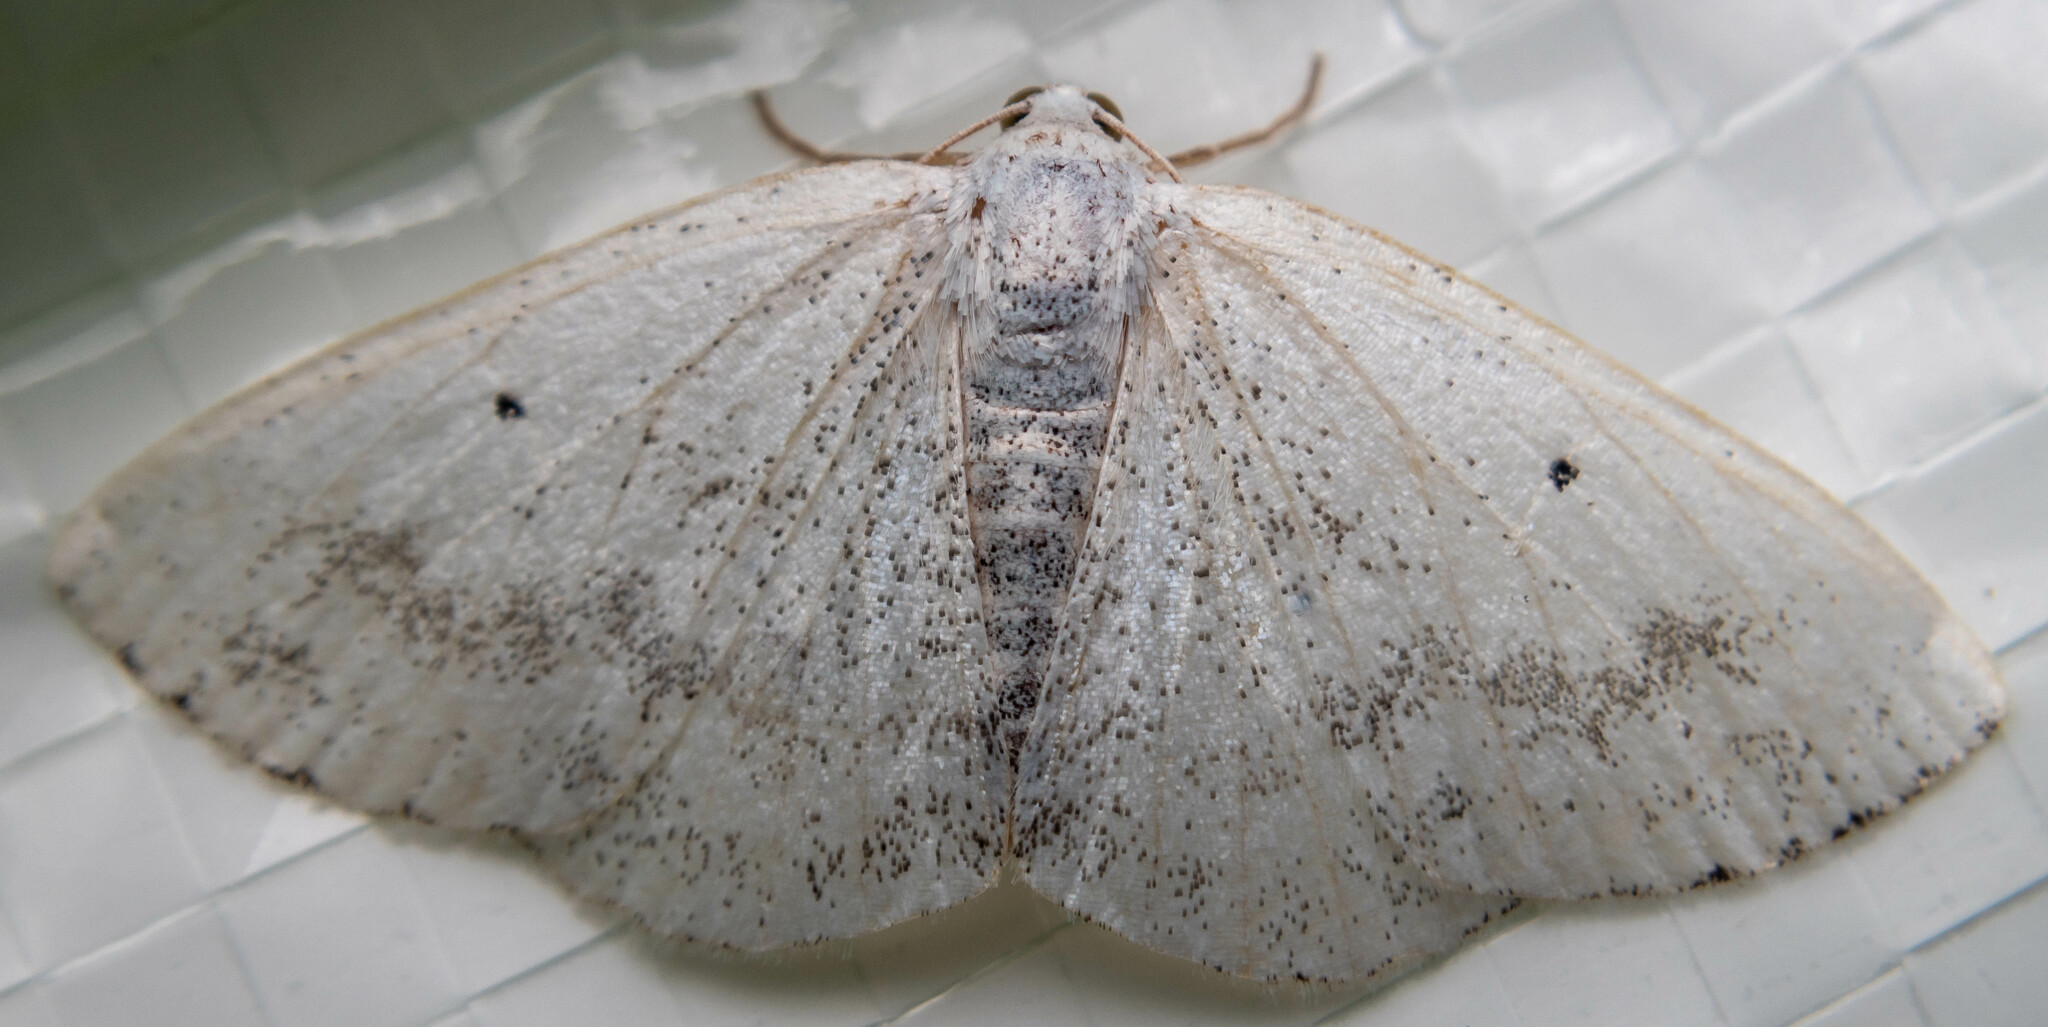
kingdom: Animalia
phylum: Arthropoda
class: Insecta
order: Lepidoptera
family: Geometridae
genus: Lomographa
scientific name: Lomographa temerata
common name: Clouded silver
